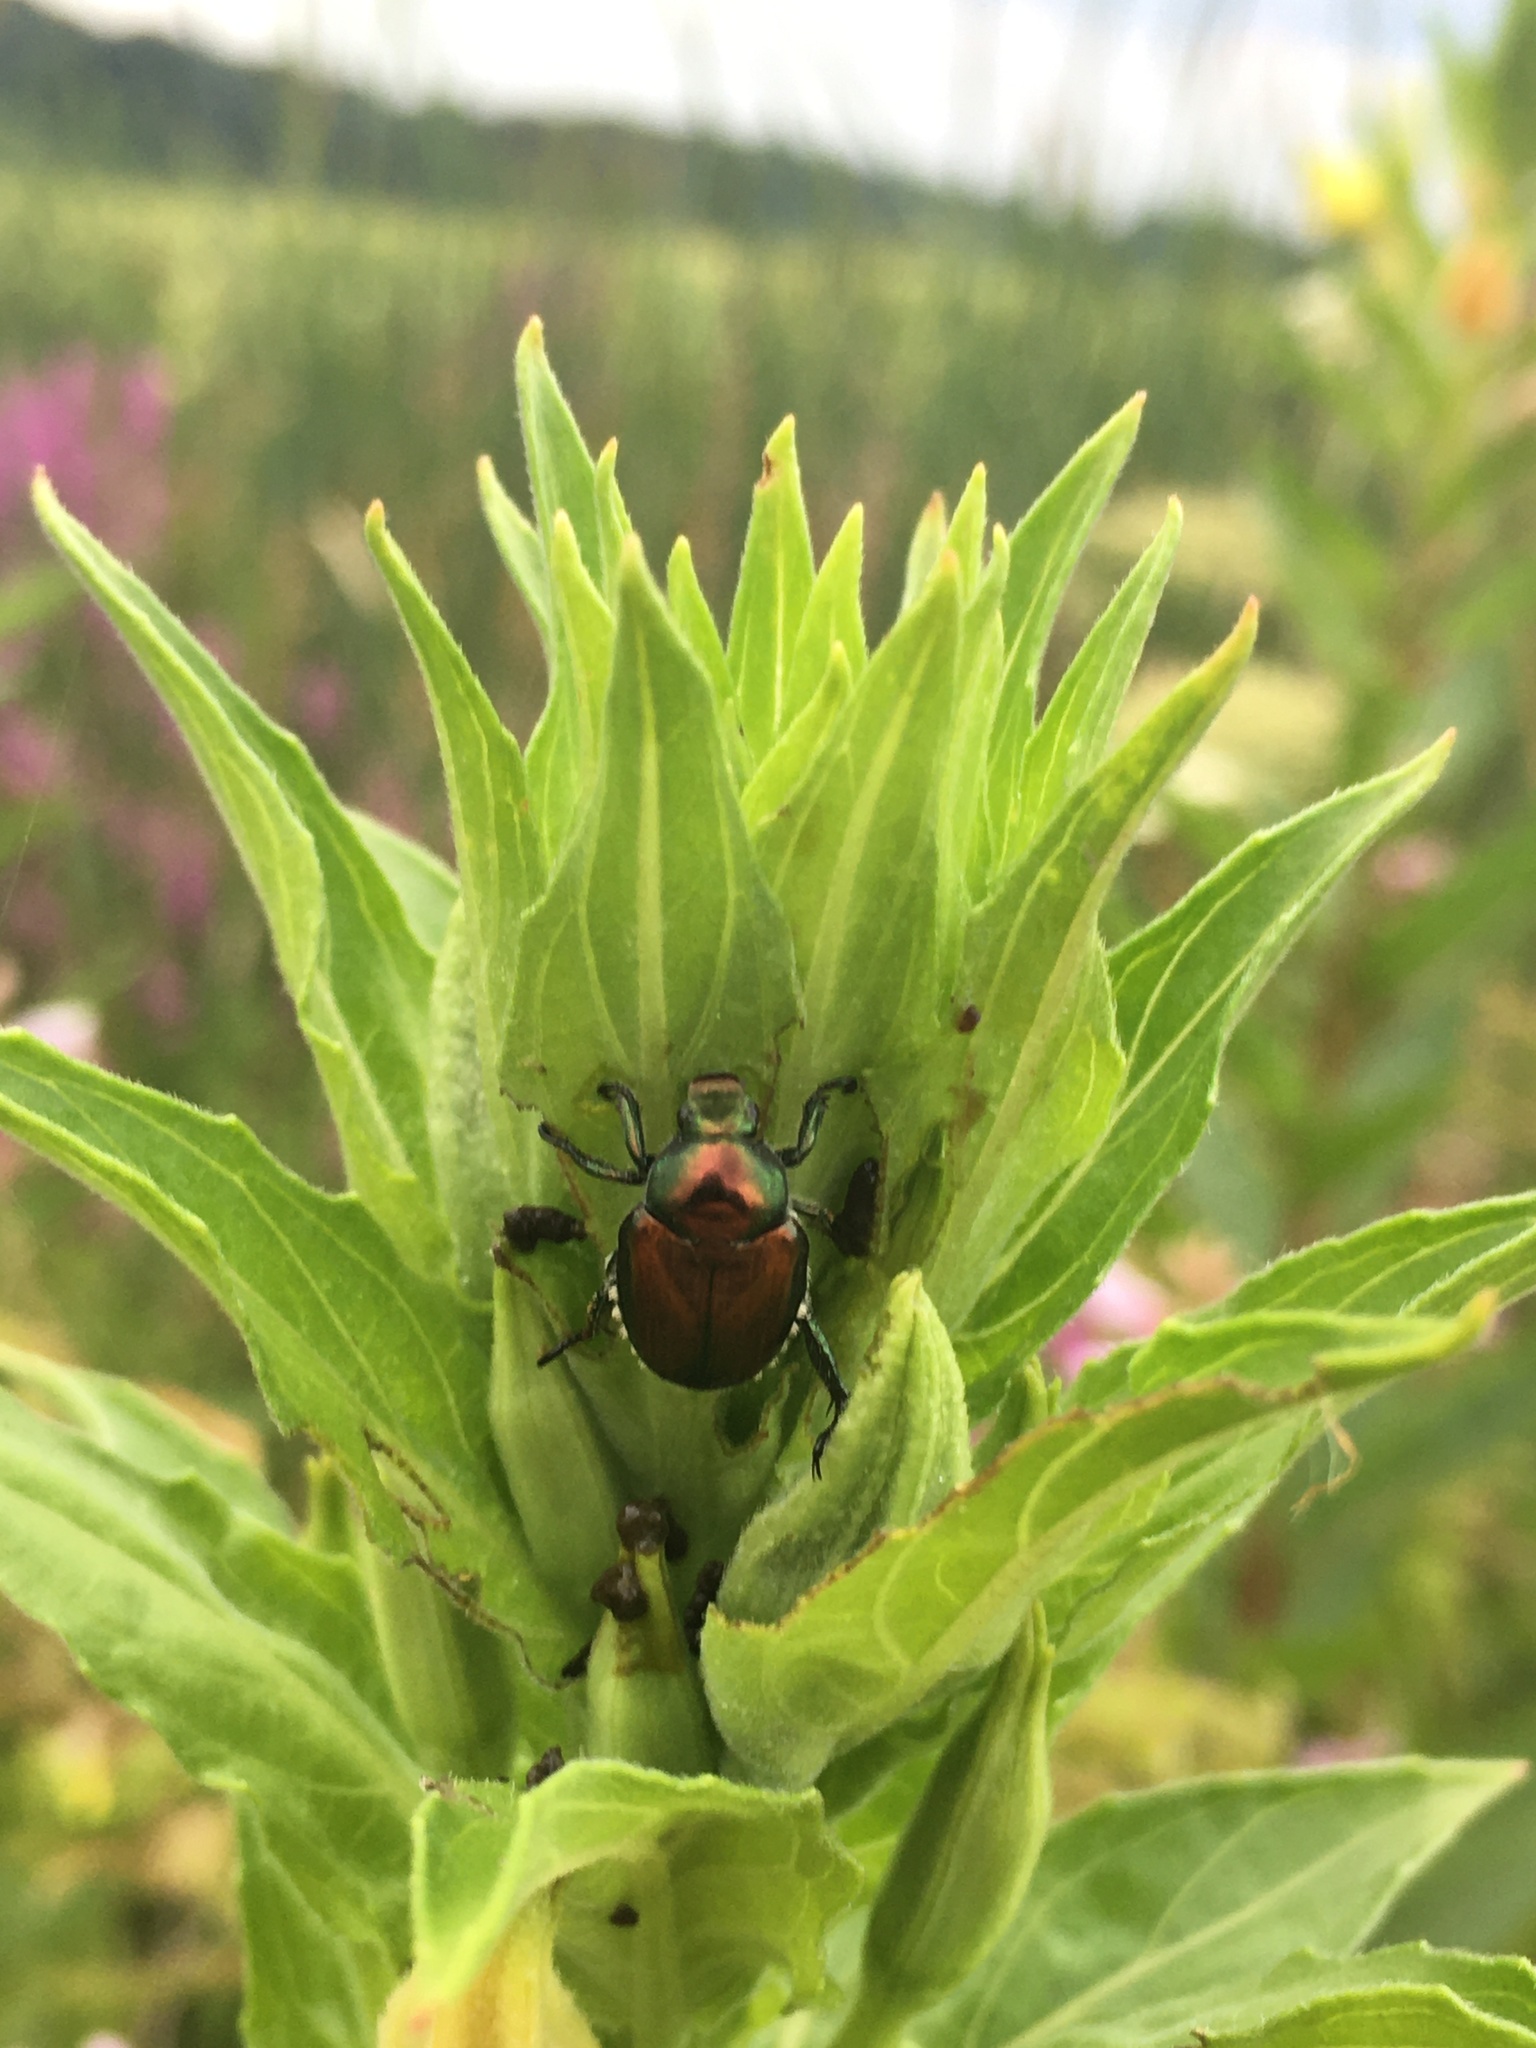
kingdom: Animalia
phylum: Arthropoda
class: Insecta
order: Coleoptera
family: Scarabaeidae
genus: Popillia
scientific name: Popillia japonica
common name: Japanese beetle
